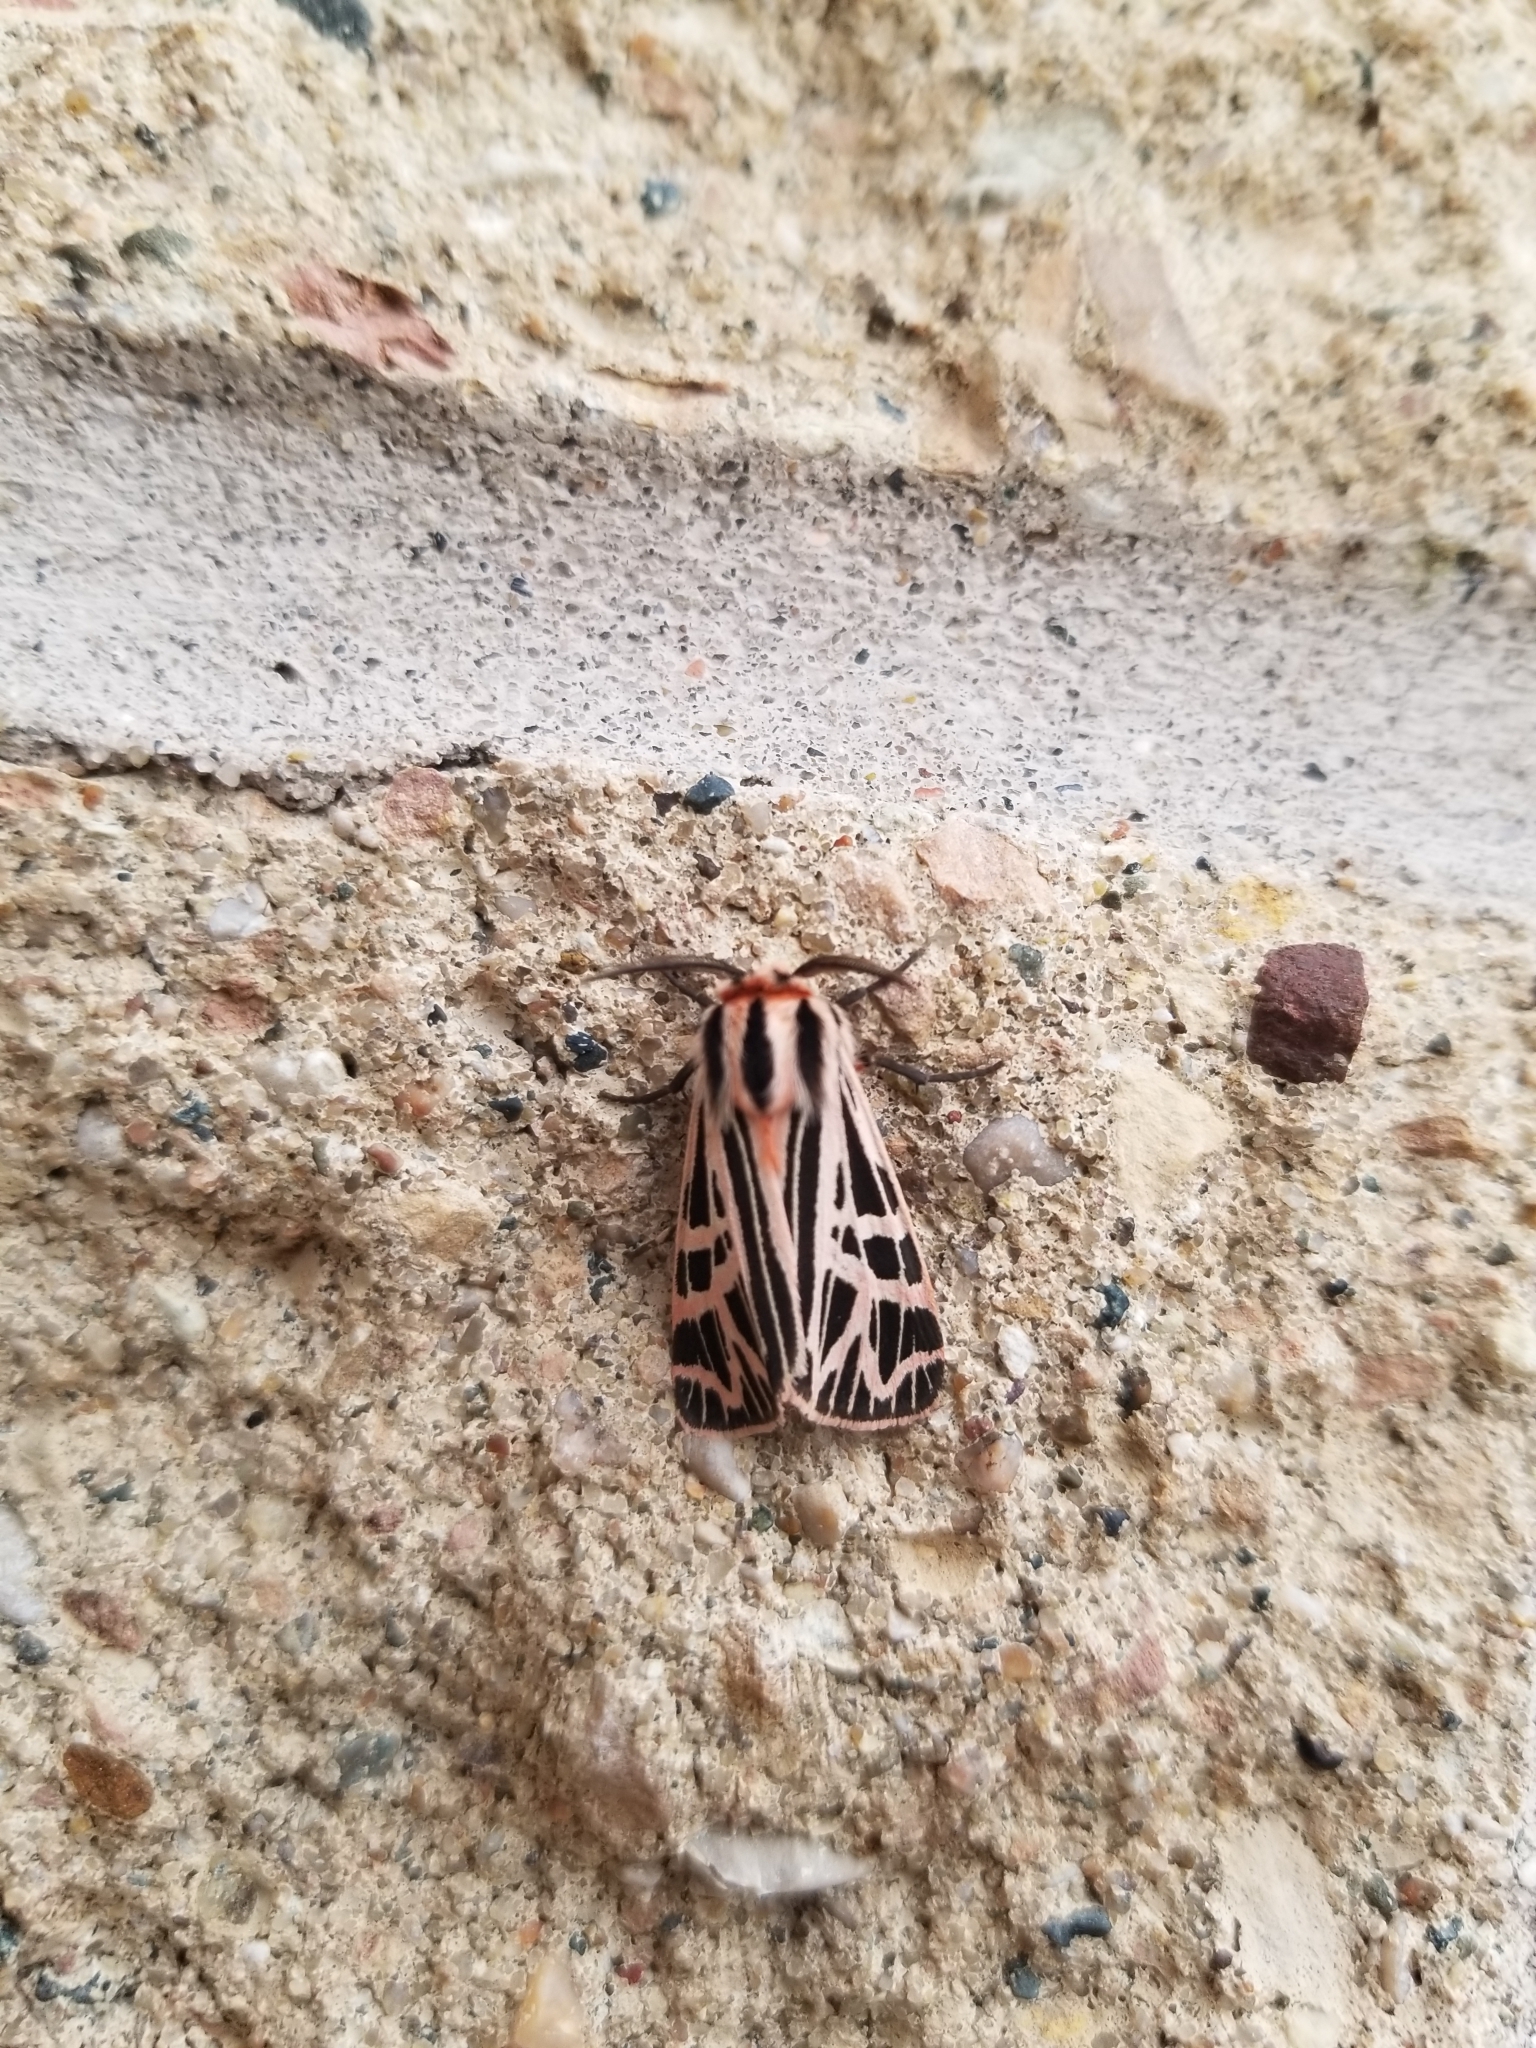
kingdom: Animalia
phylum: Arthropoda
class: Insecta
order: Lepidoptera
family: Erebidae
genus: Apantesis
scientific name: Apantesis
